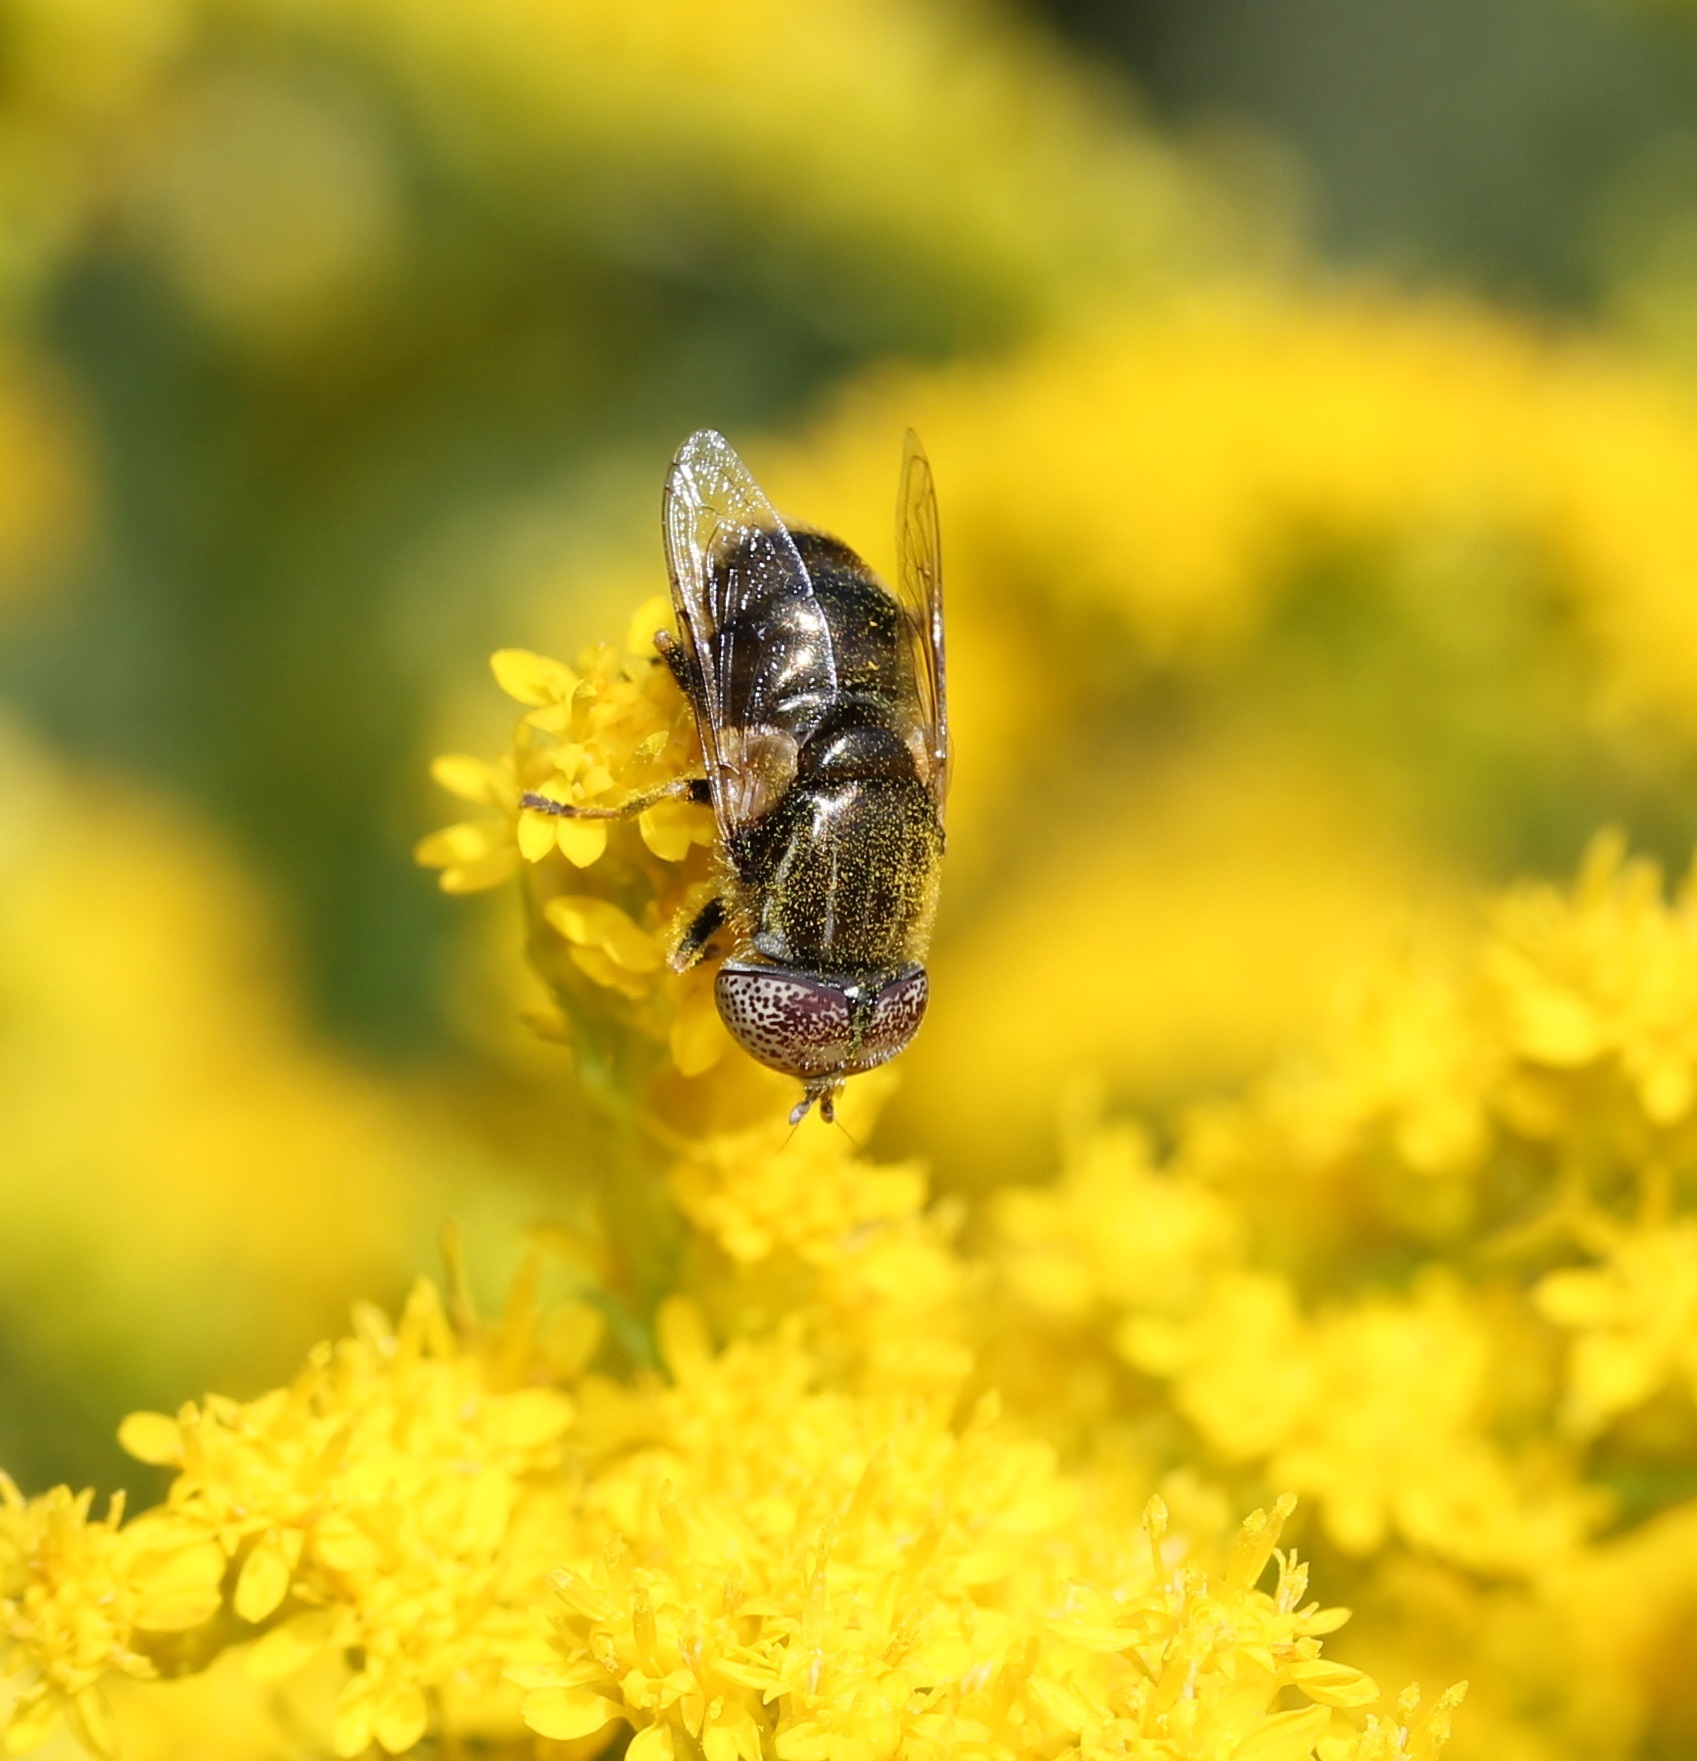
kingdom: Animalia
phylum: Arthropoda
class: Insecta
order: Diptera
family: Syrphidae
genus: Eristalinus
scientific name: Eristalinus aeneus
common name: Syrphid fly
